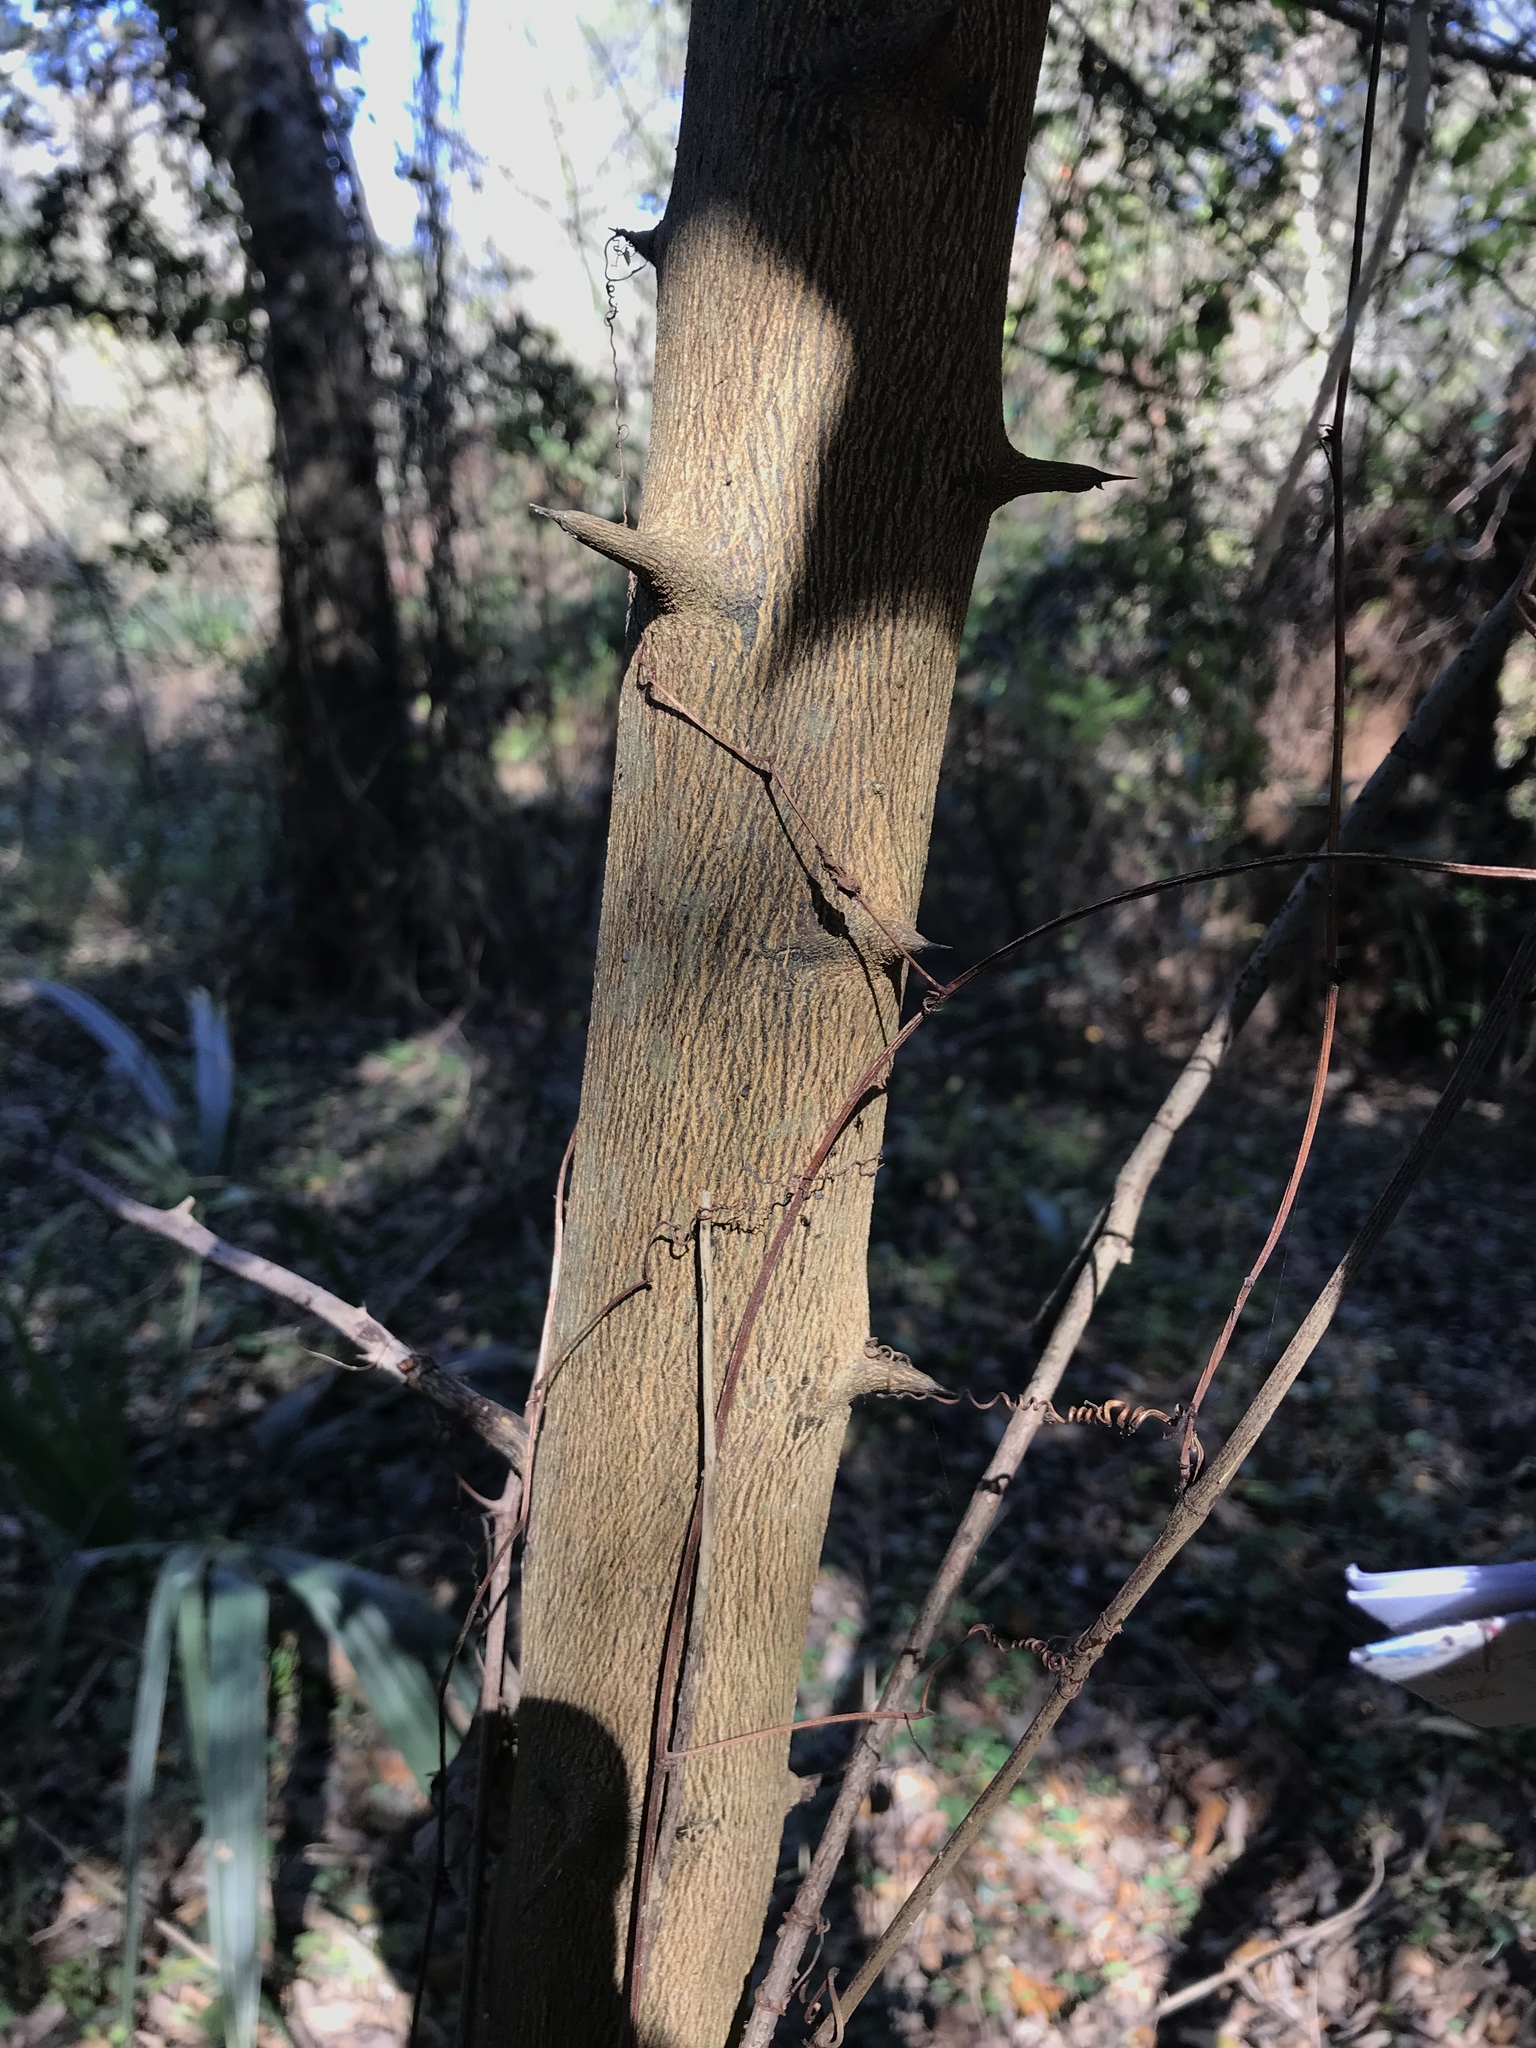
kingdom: Plantae
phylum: Tracheophyta
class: Magnoliopsida
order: Rosales
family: Moraceae
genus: Maclura
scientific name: Maclura pomifera
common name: Osage-orange
